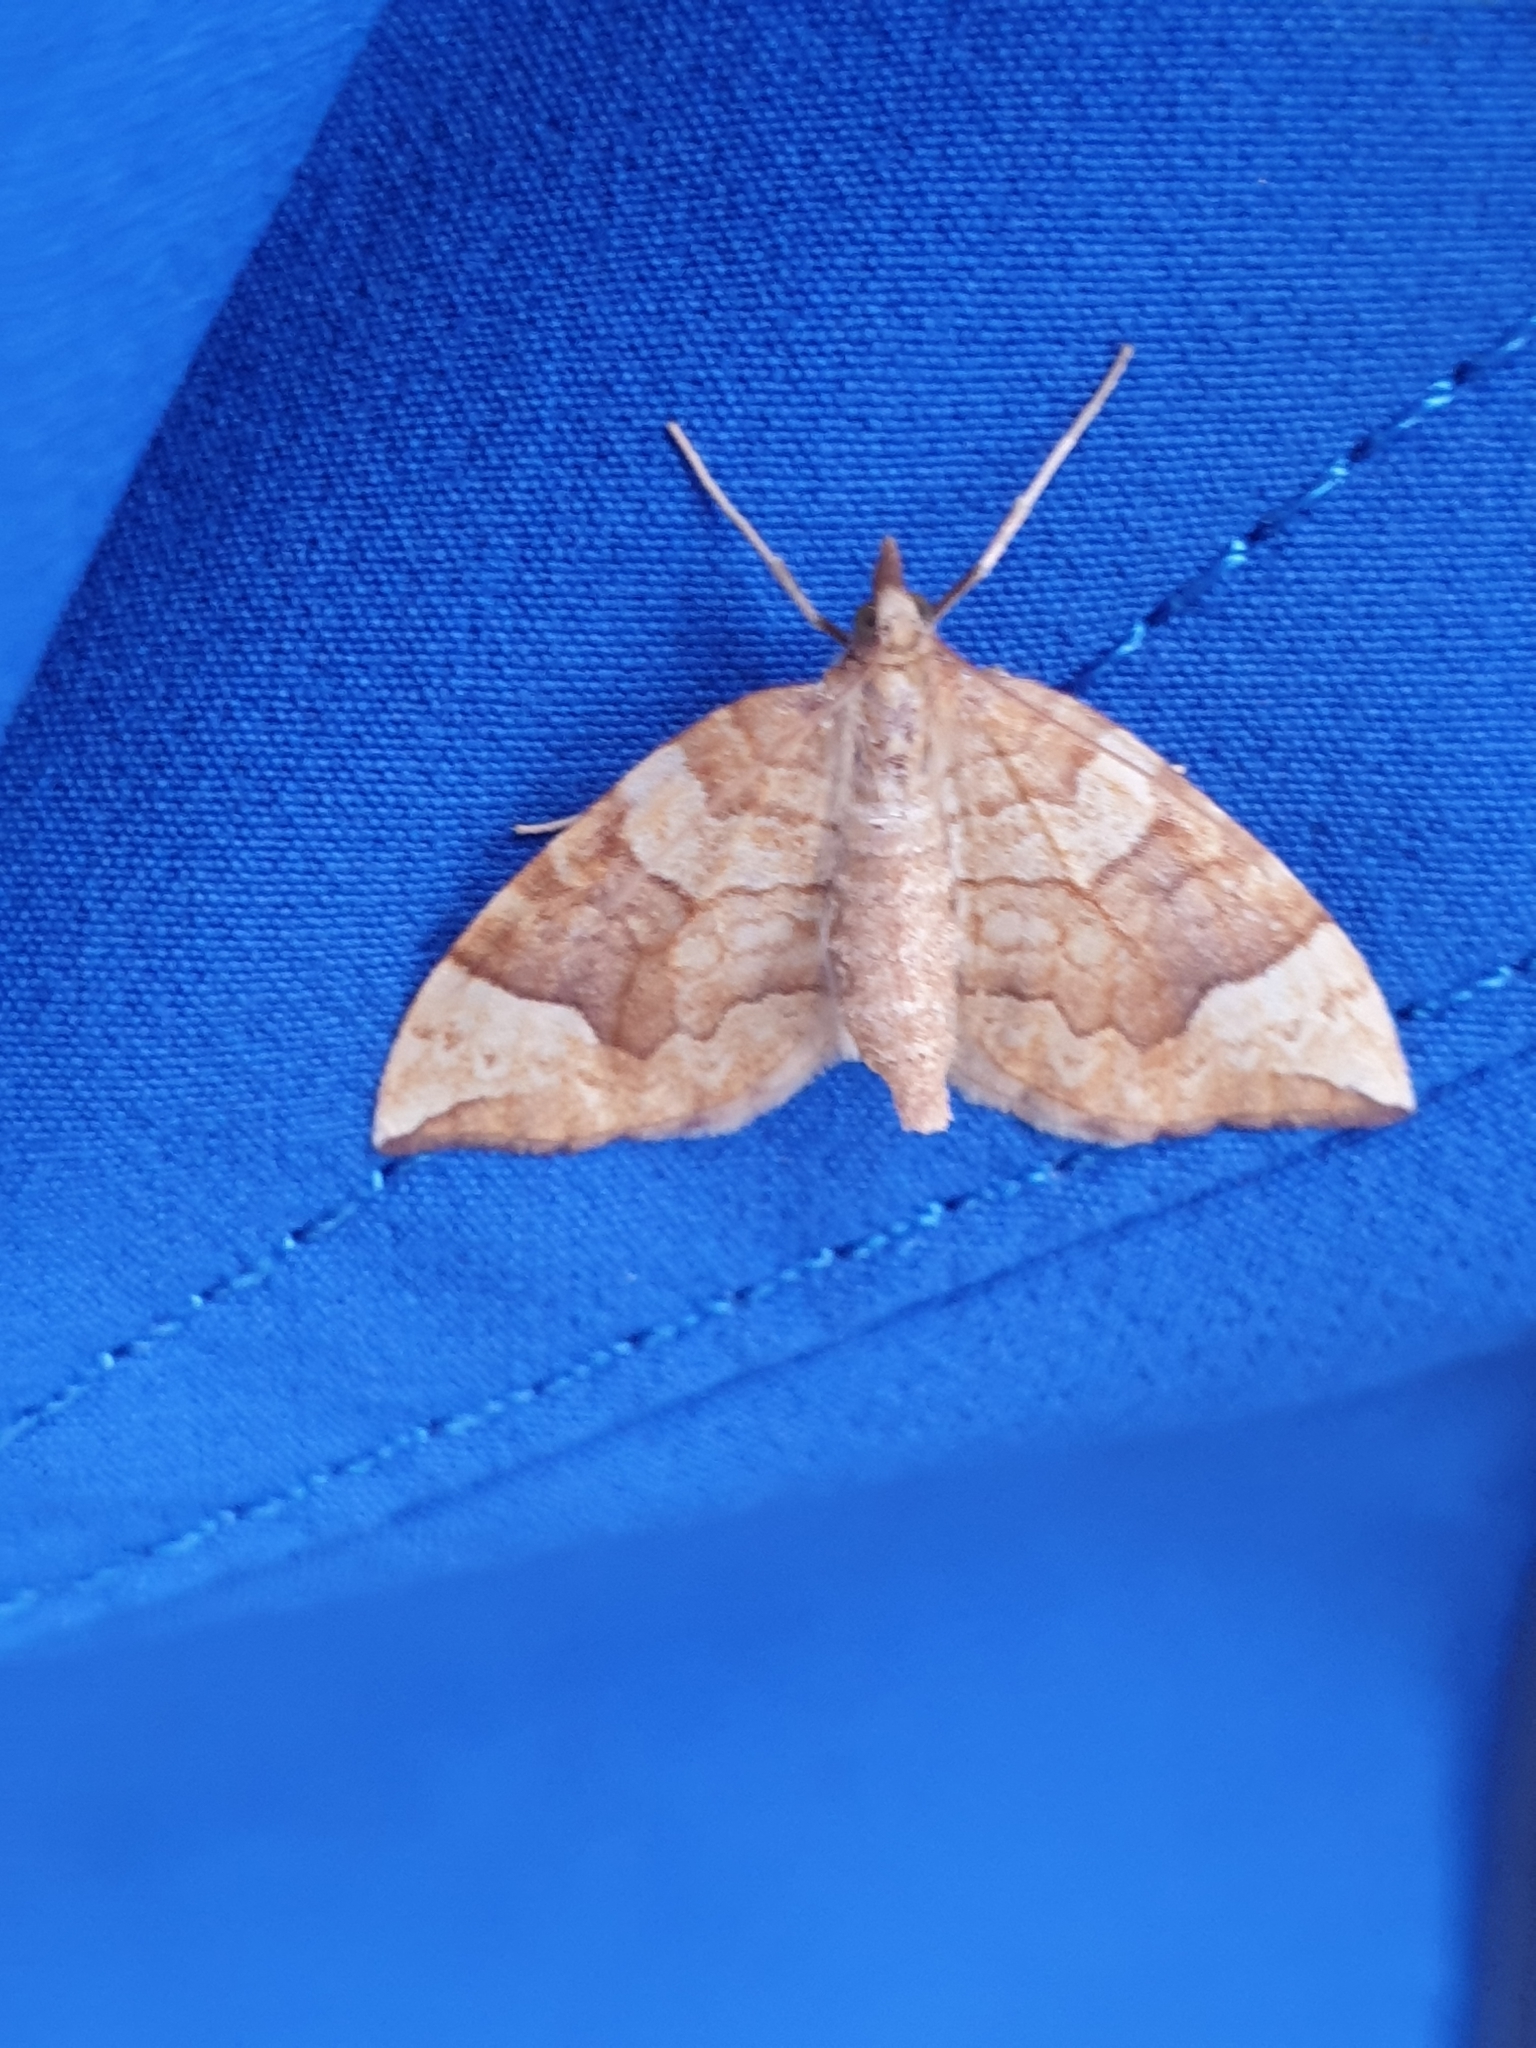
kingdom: Animalia
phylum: Arthropoda
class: Insecta
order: Lepidoptera
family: Geometridae
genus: Eulithis
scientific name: Eulithis populata
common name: Northern spinach
